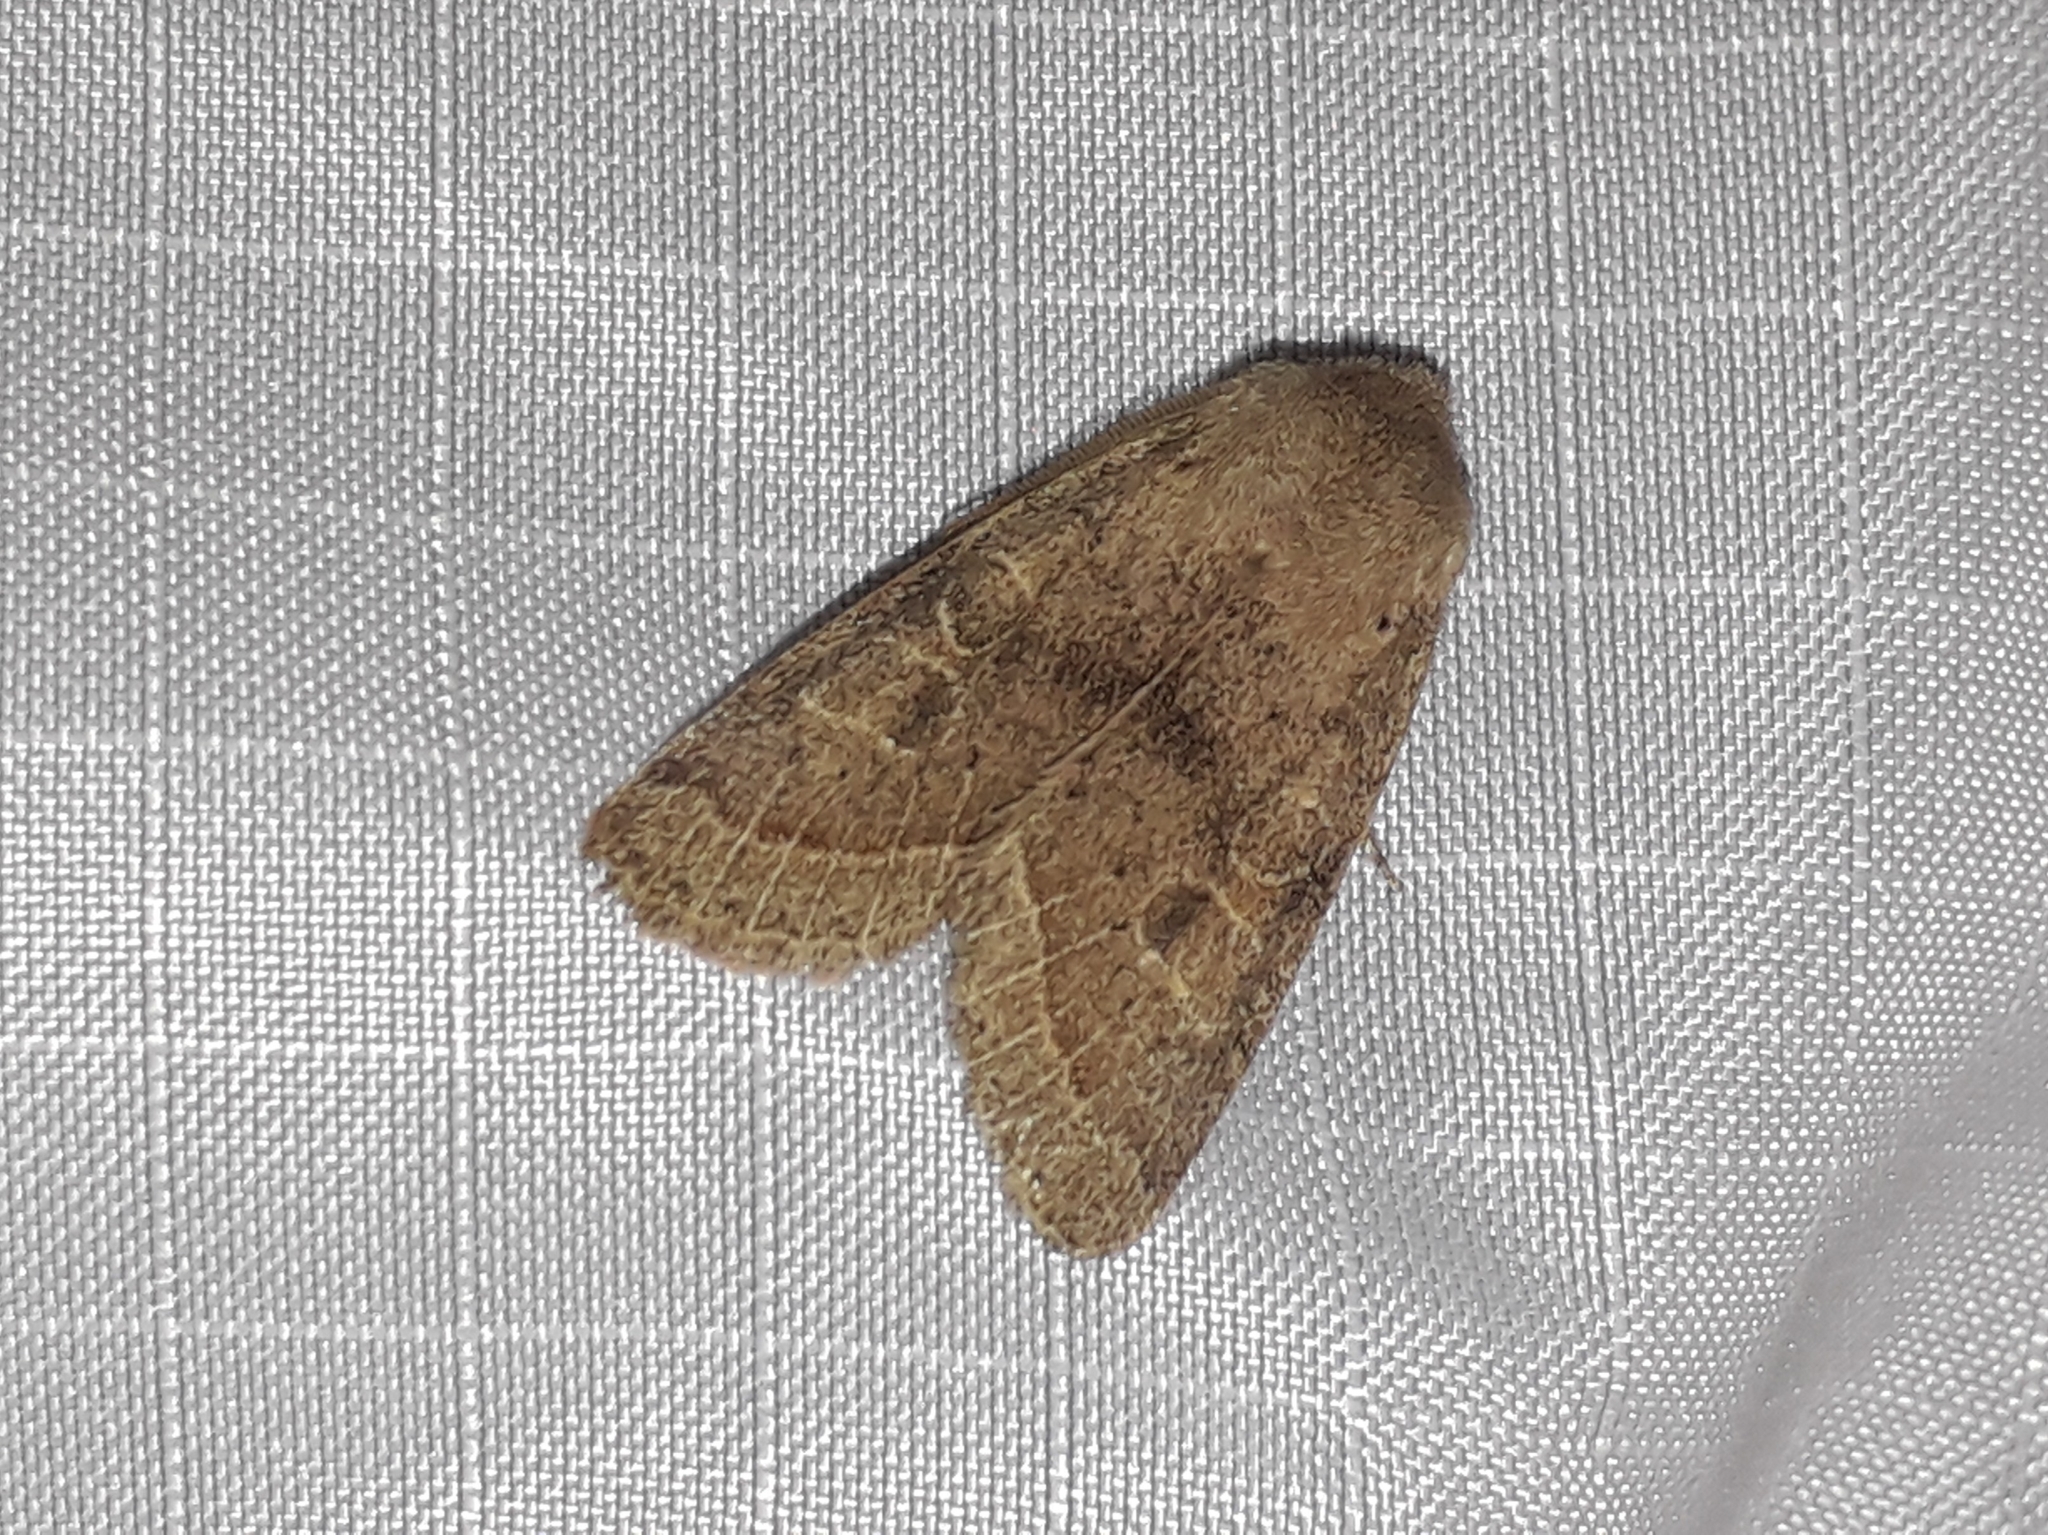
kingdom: Animalia
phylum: Arthropoda
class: Insecta
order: Lepidoptera
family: Noctuidae
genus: Orthosia
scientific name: Orthosia cerasi
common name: Common quaker
